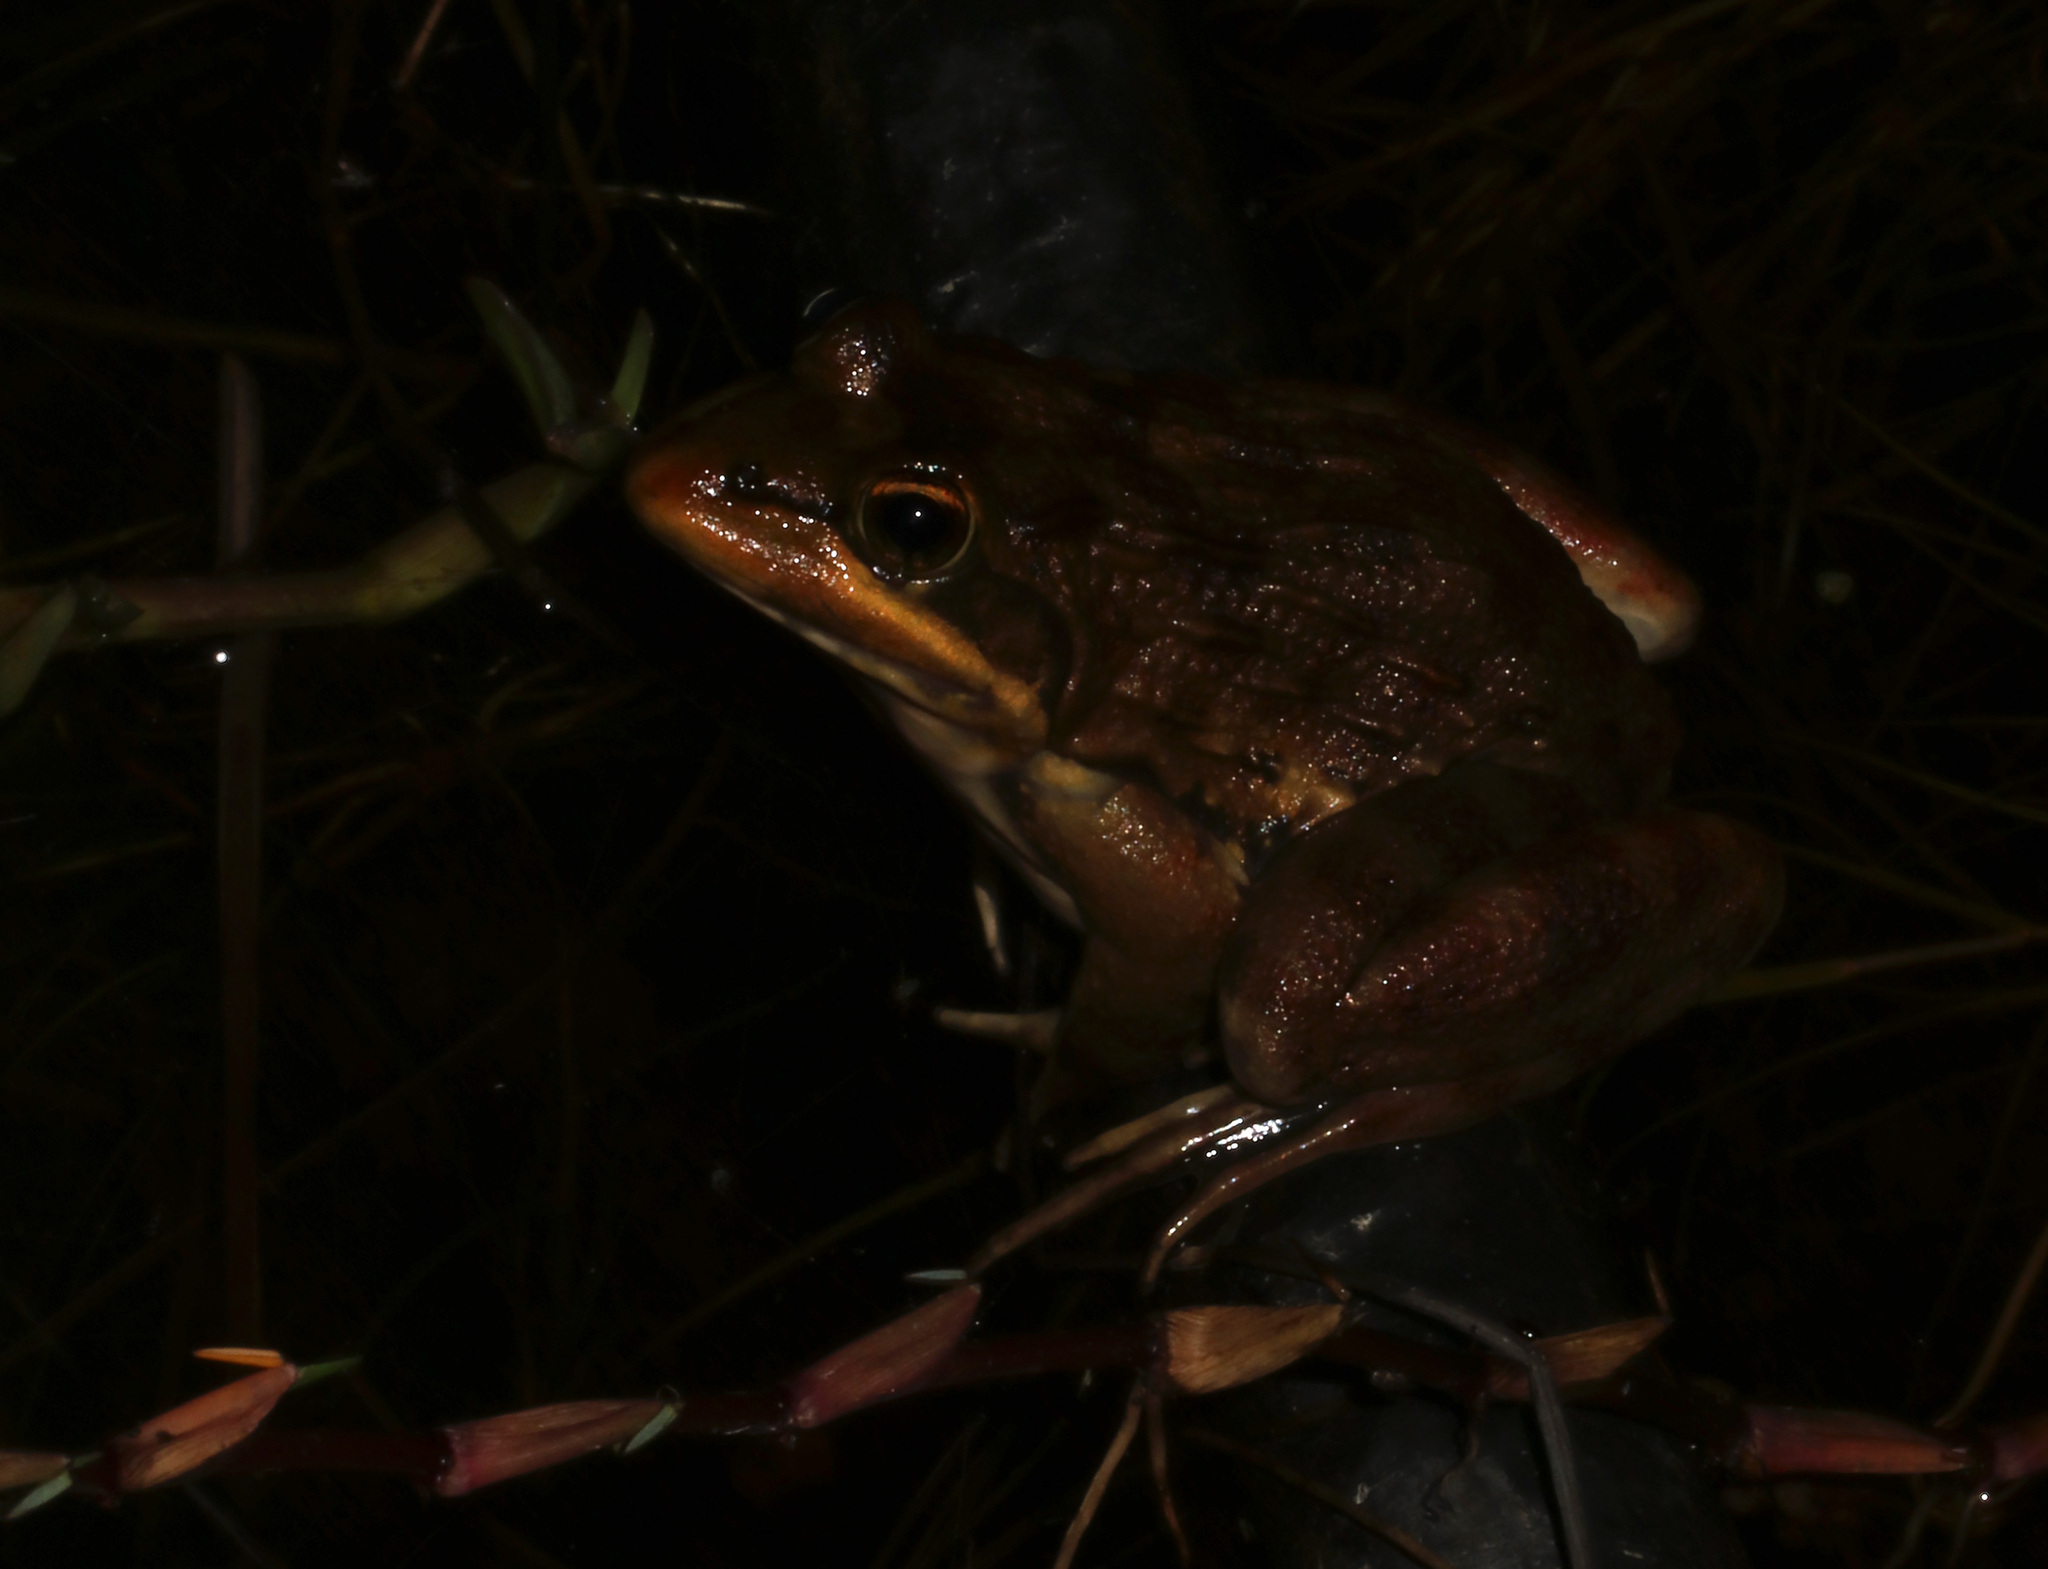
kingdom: Animalia
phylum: Chordata
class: Amphibia
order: Anura
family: Pyxicephalidae
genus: Amietia
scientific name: Amietia fuscigula
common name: Cape rana
